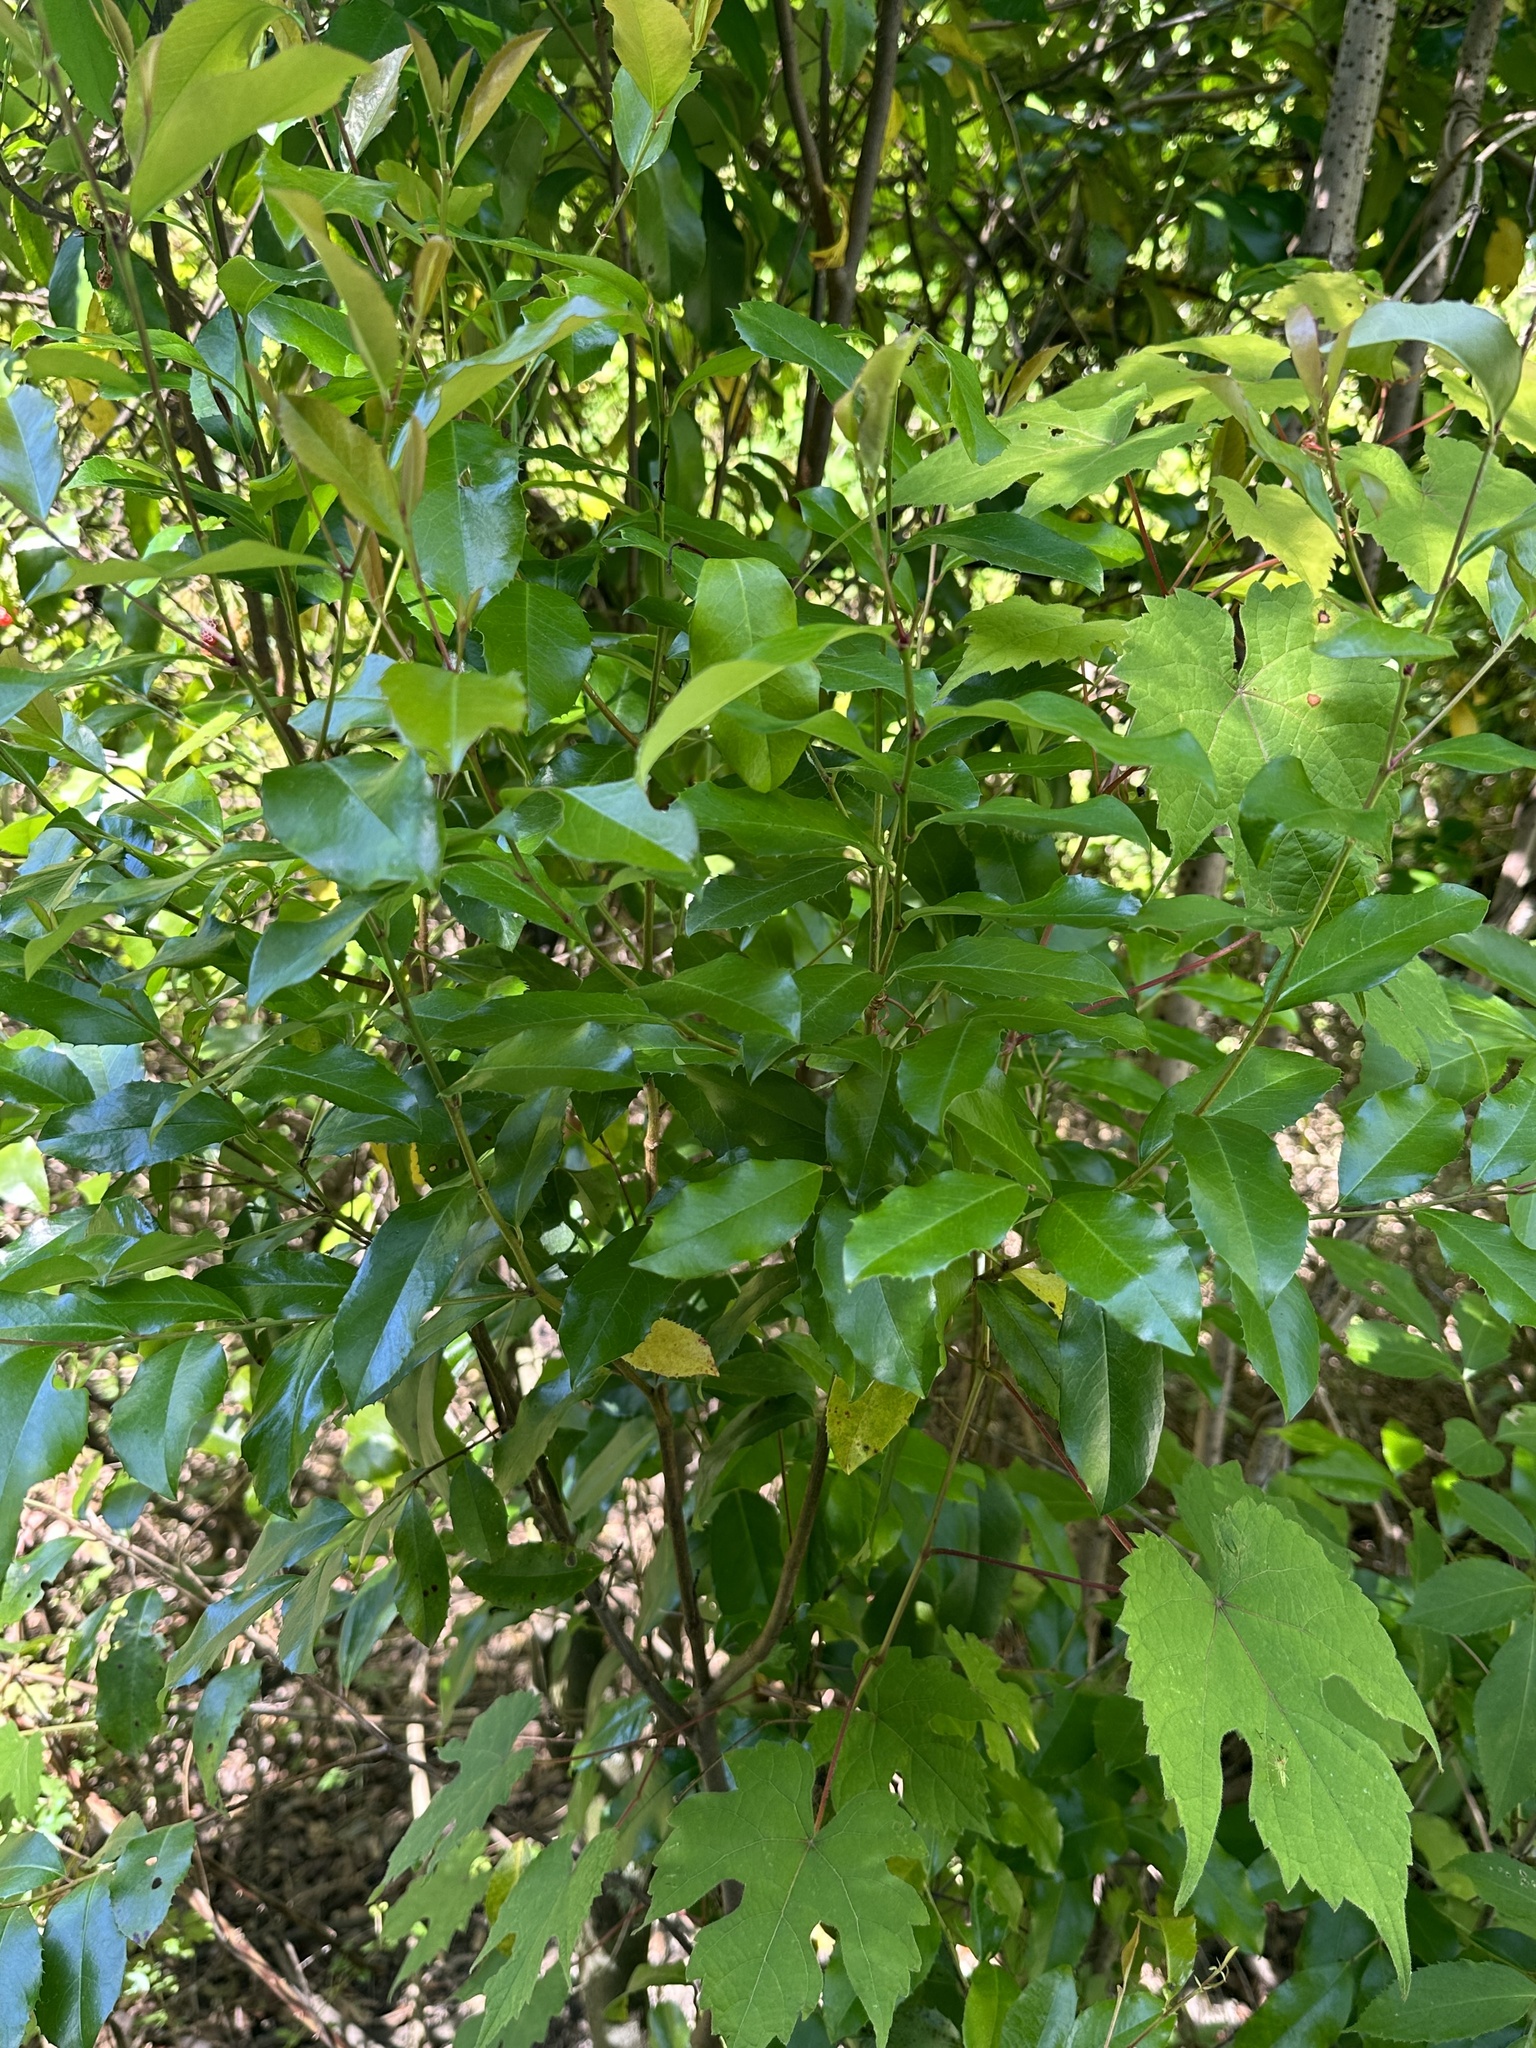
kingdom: Plantae
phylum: Tracheophyta
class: Magnoliopsida
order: Rosales
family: Rosaceae
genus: Prunus
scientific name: Prunus caroliniana
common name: Carolina laurel cherry
